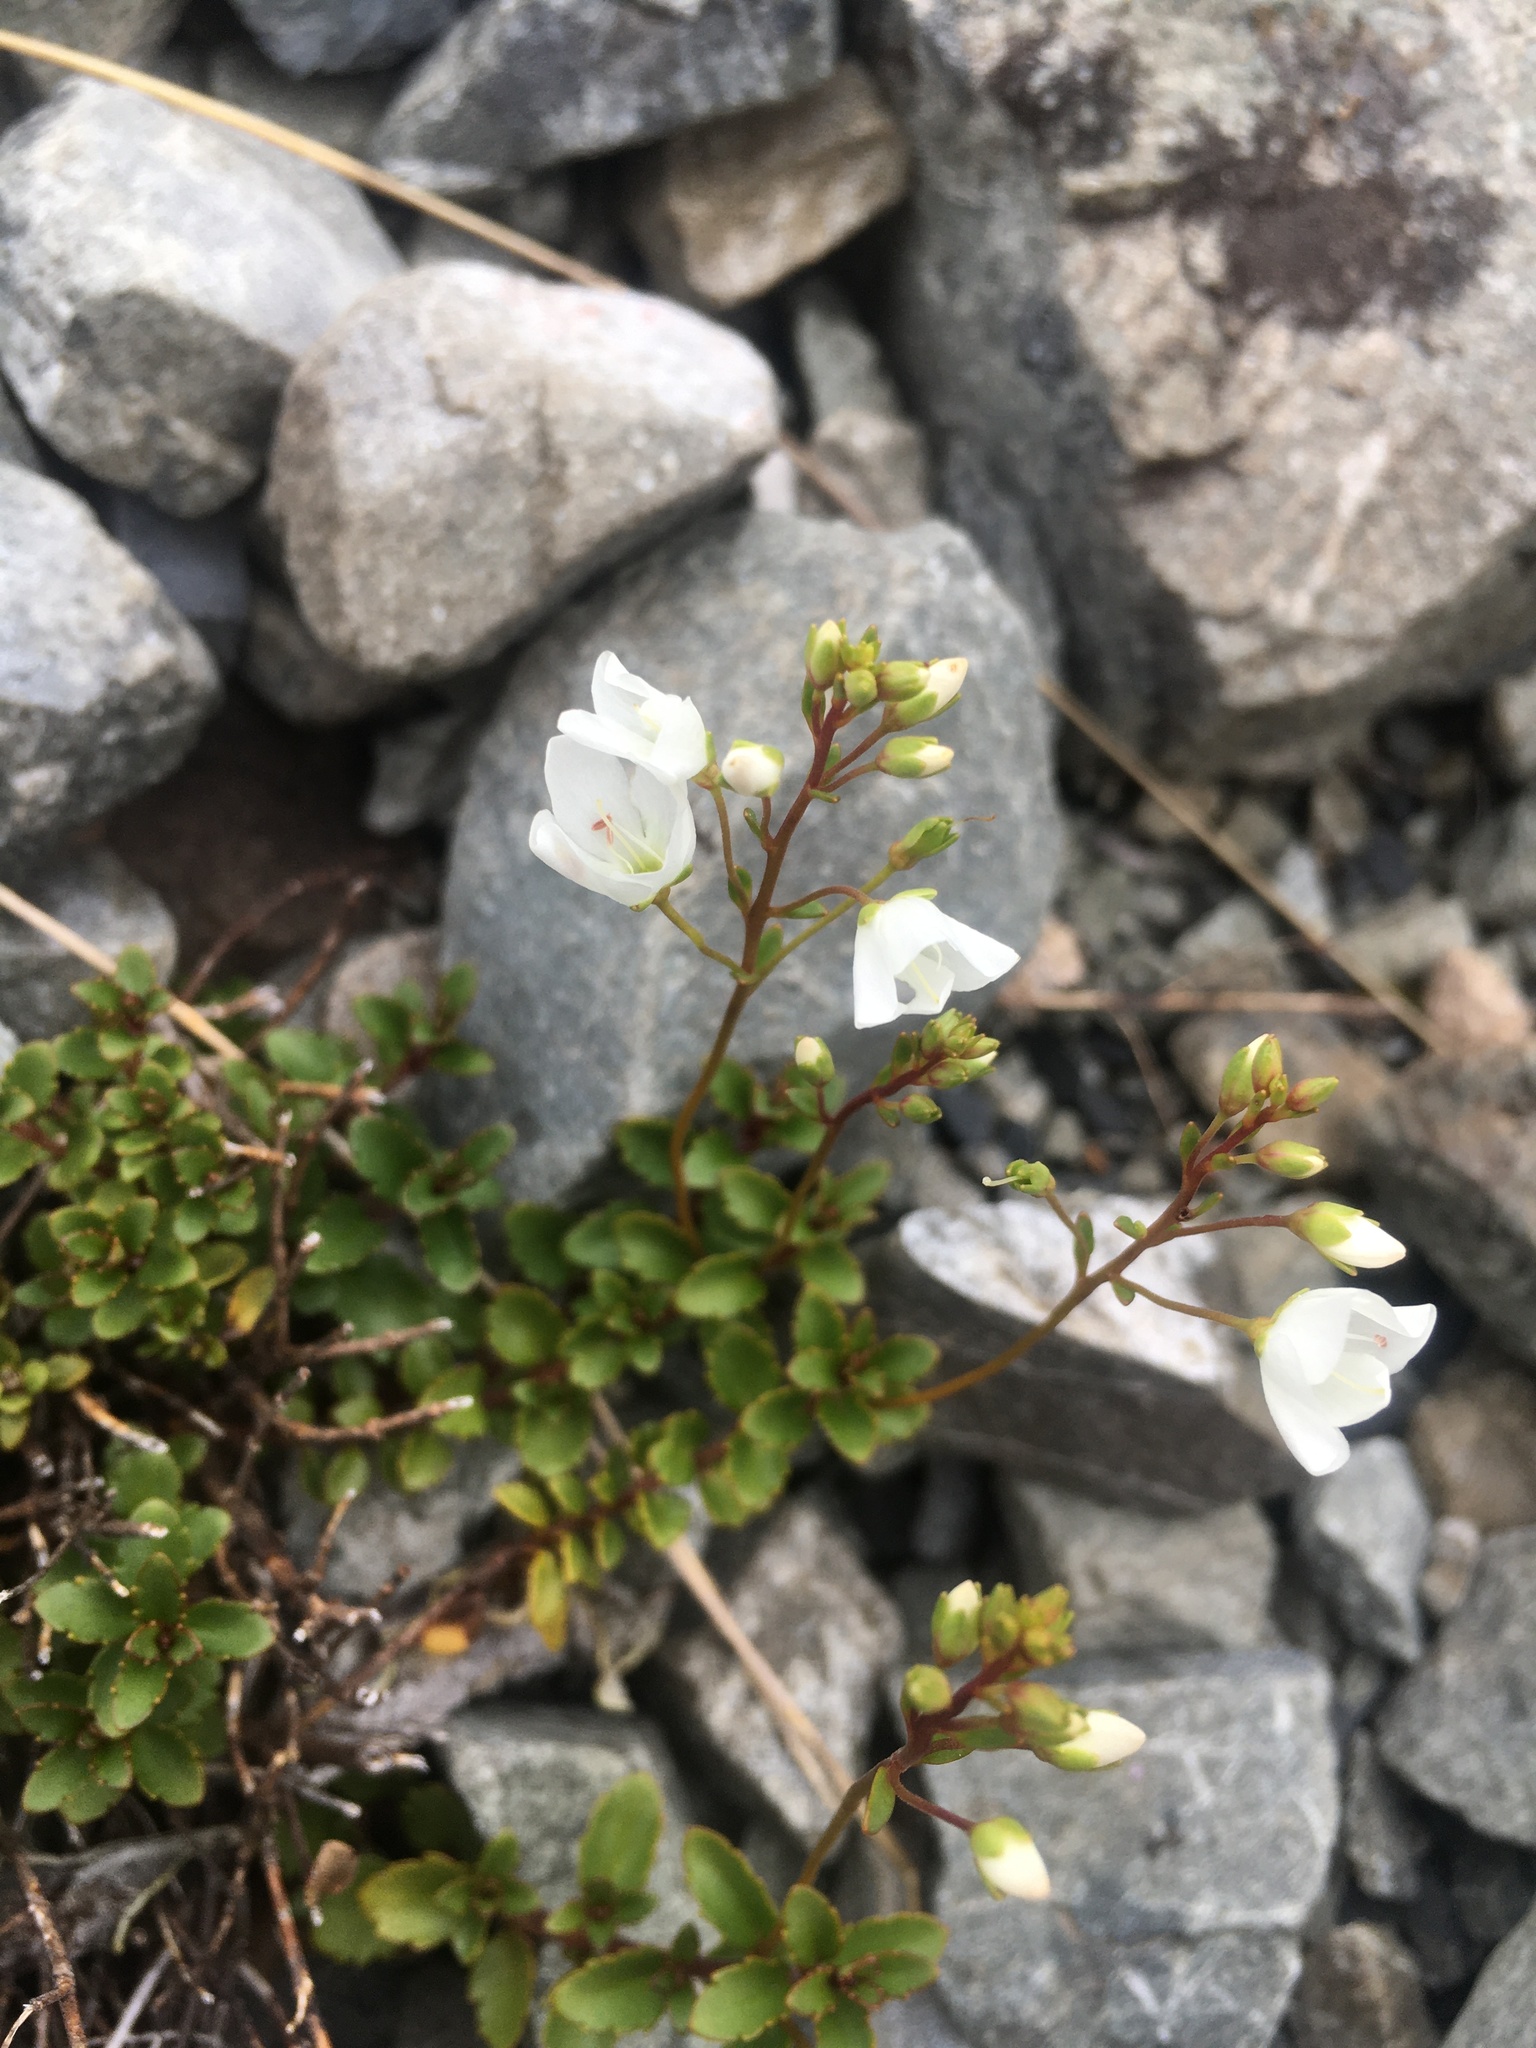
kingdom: Plantae
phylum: Tracheophyta
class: Magnoliopsida
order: Lamiales
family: Plantaginaceae
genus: Veronica
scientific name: Veronica lyallii
